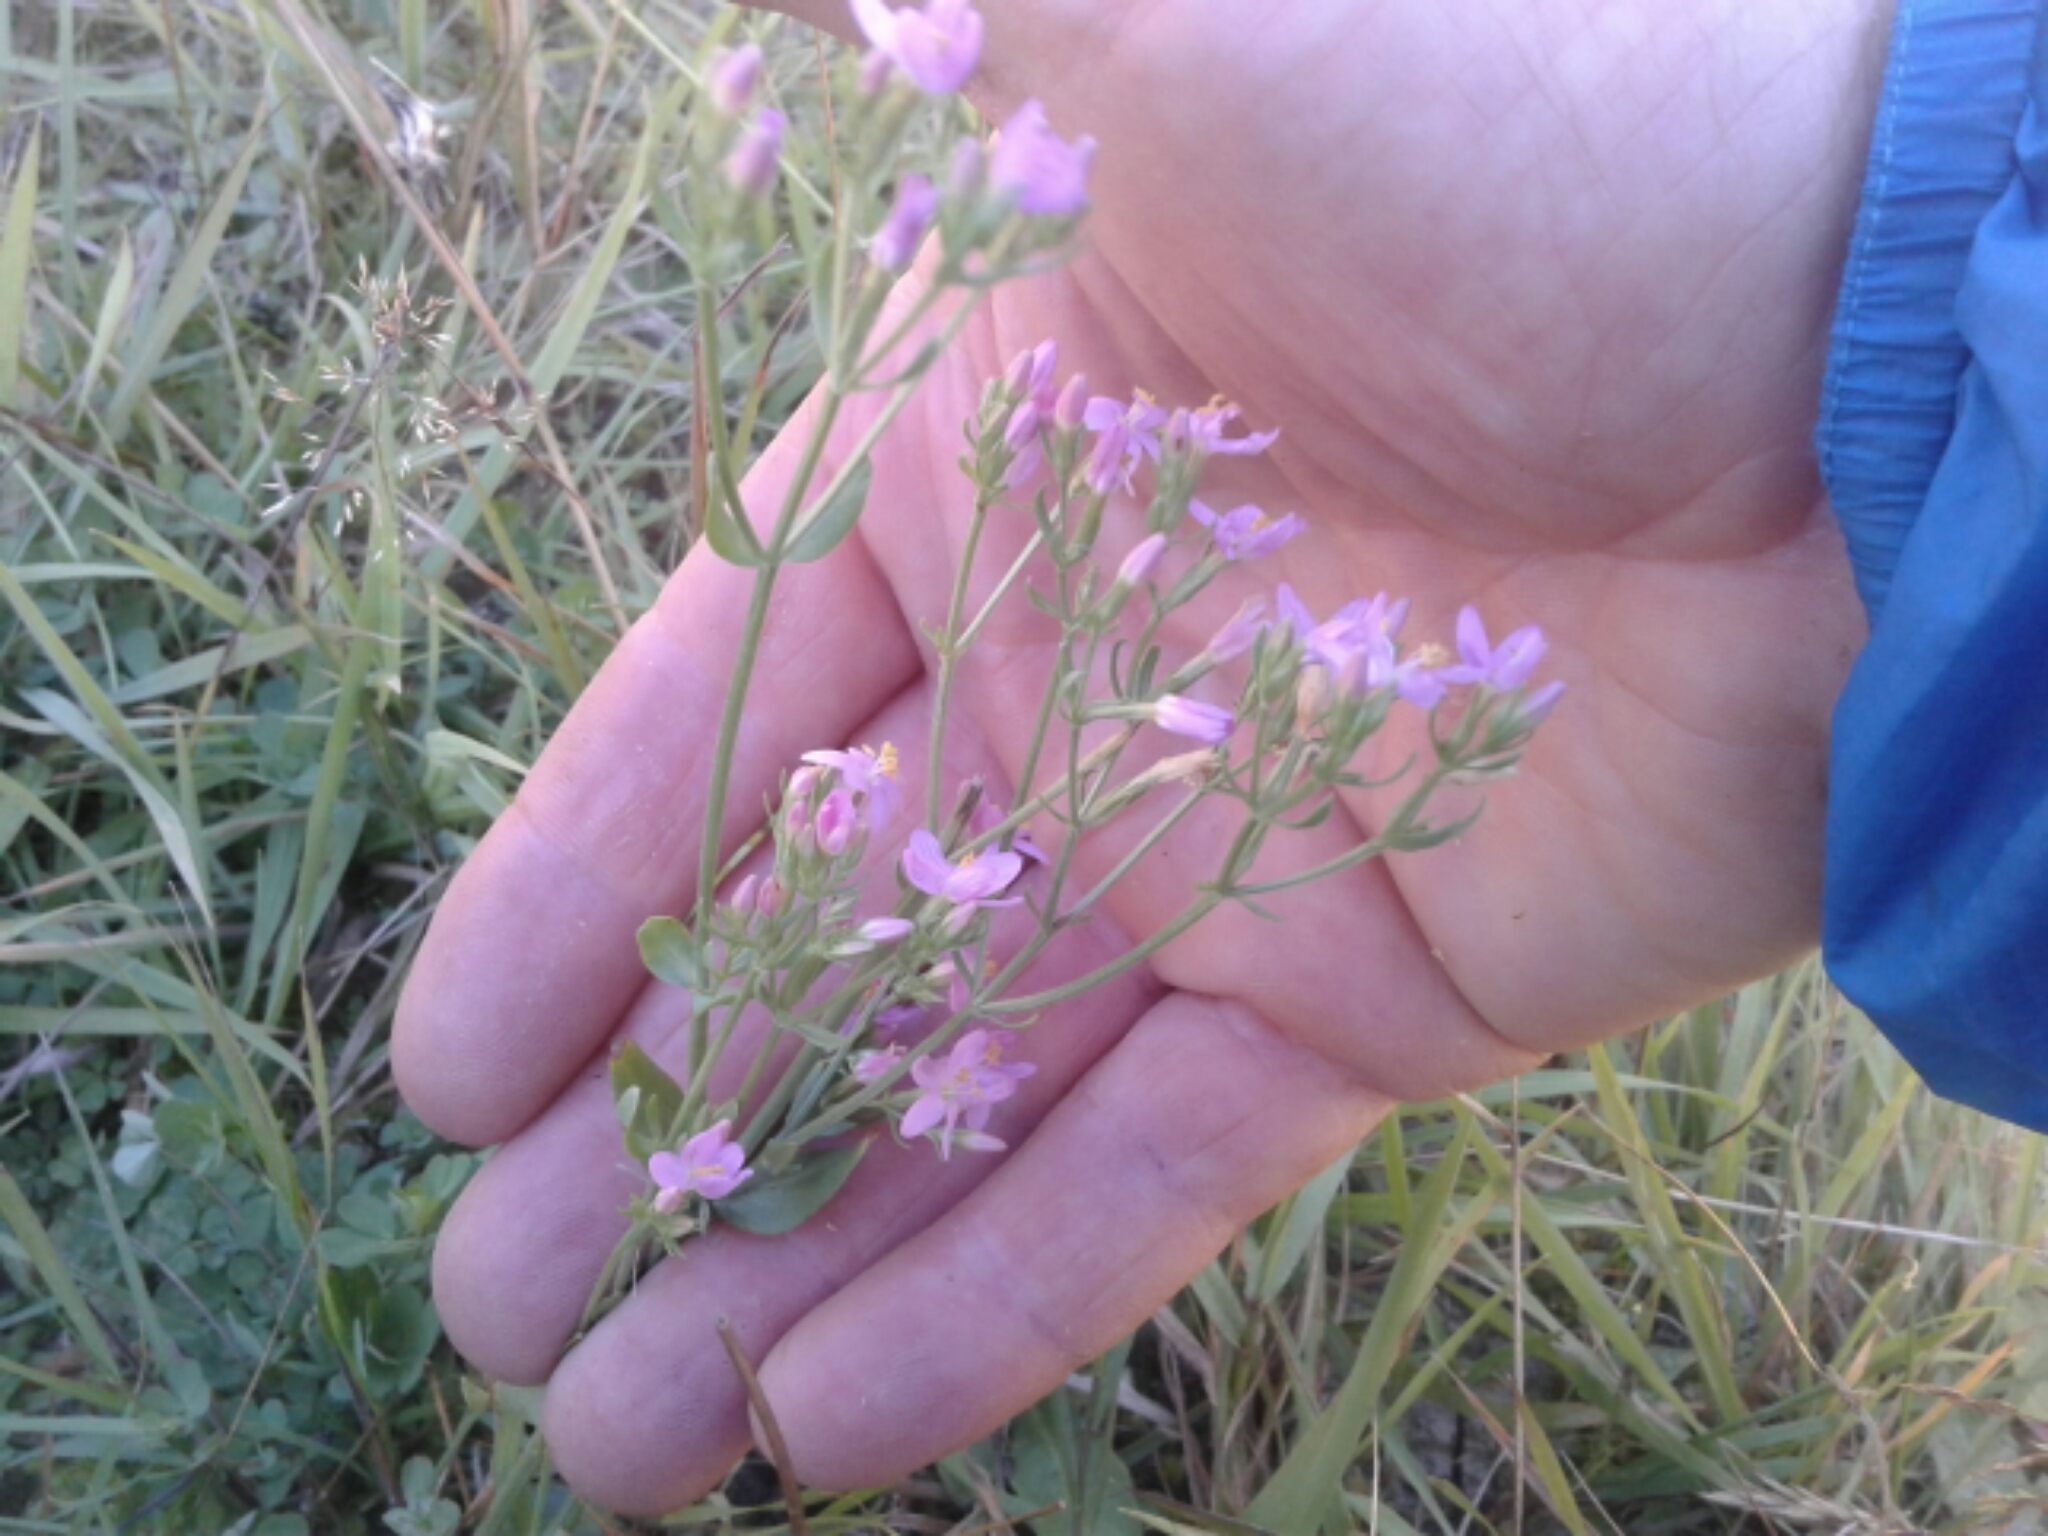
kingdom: Plantae
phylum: Tracheophyta
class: Magnoliopsida
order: Gentianales
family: Gentianaceae
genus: Centaurium
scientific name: Centaurium erythraea
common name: Common centaury
